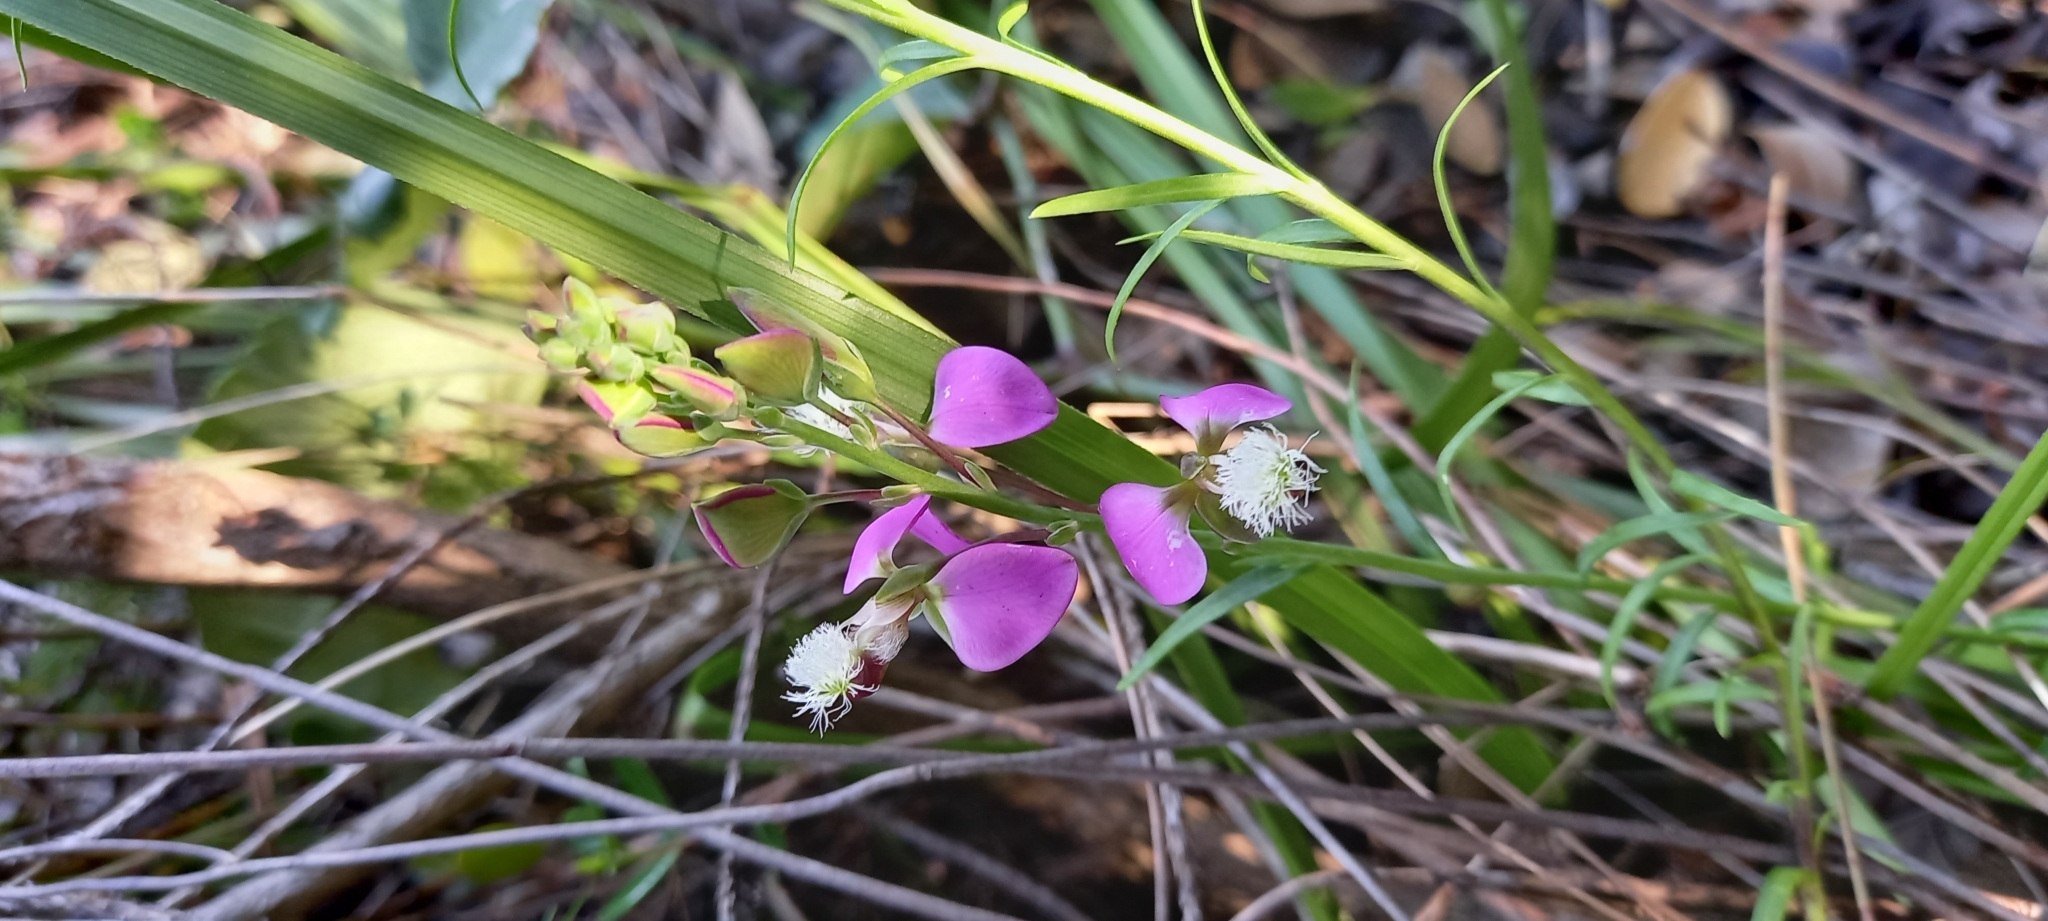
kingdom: Plantae
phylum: Tracheophyta
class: Magnoliopsida
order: Fabales
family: Polygalaceae
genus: Polygala
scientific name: Polygala bracteolata
